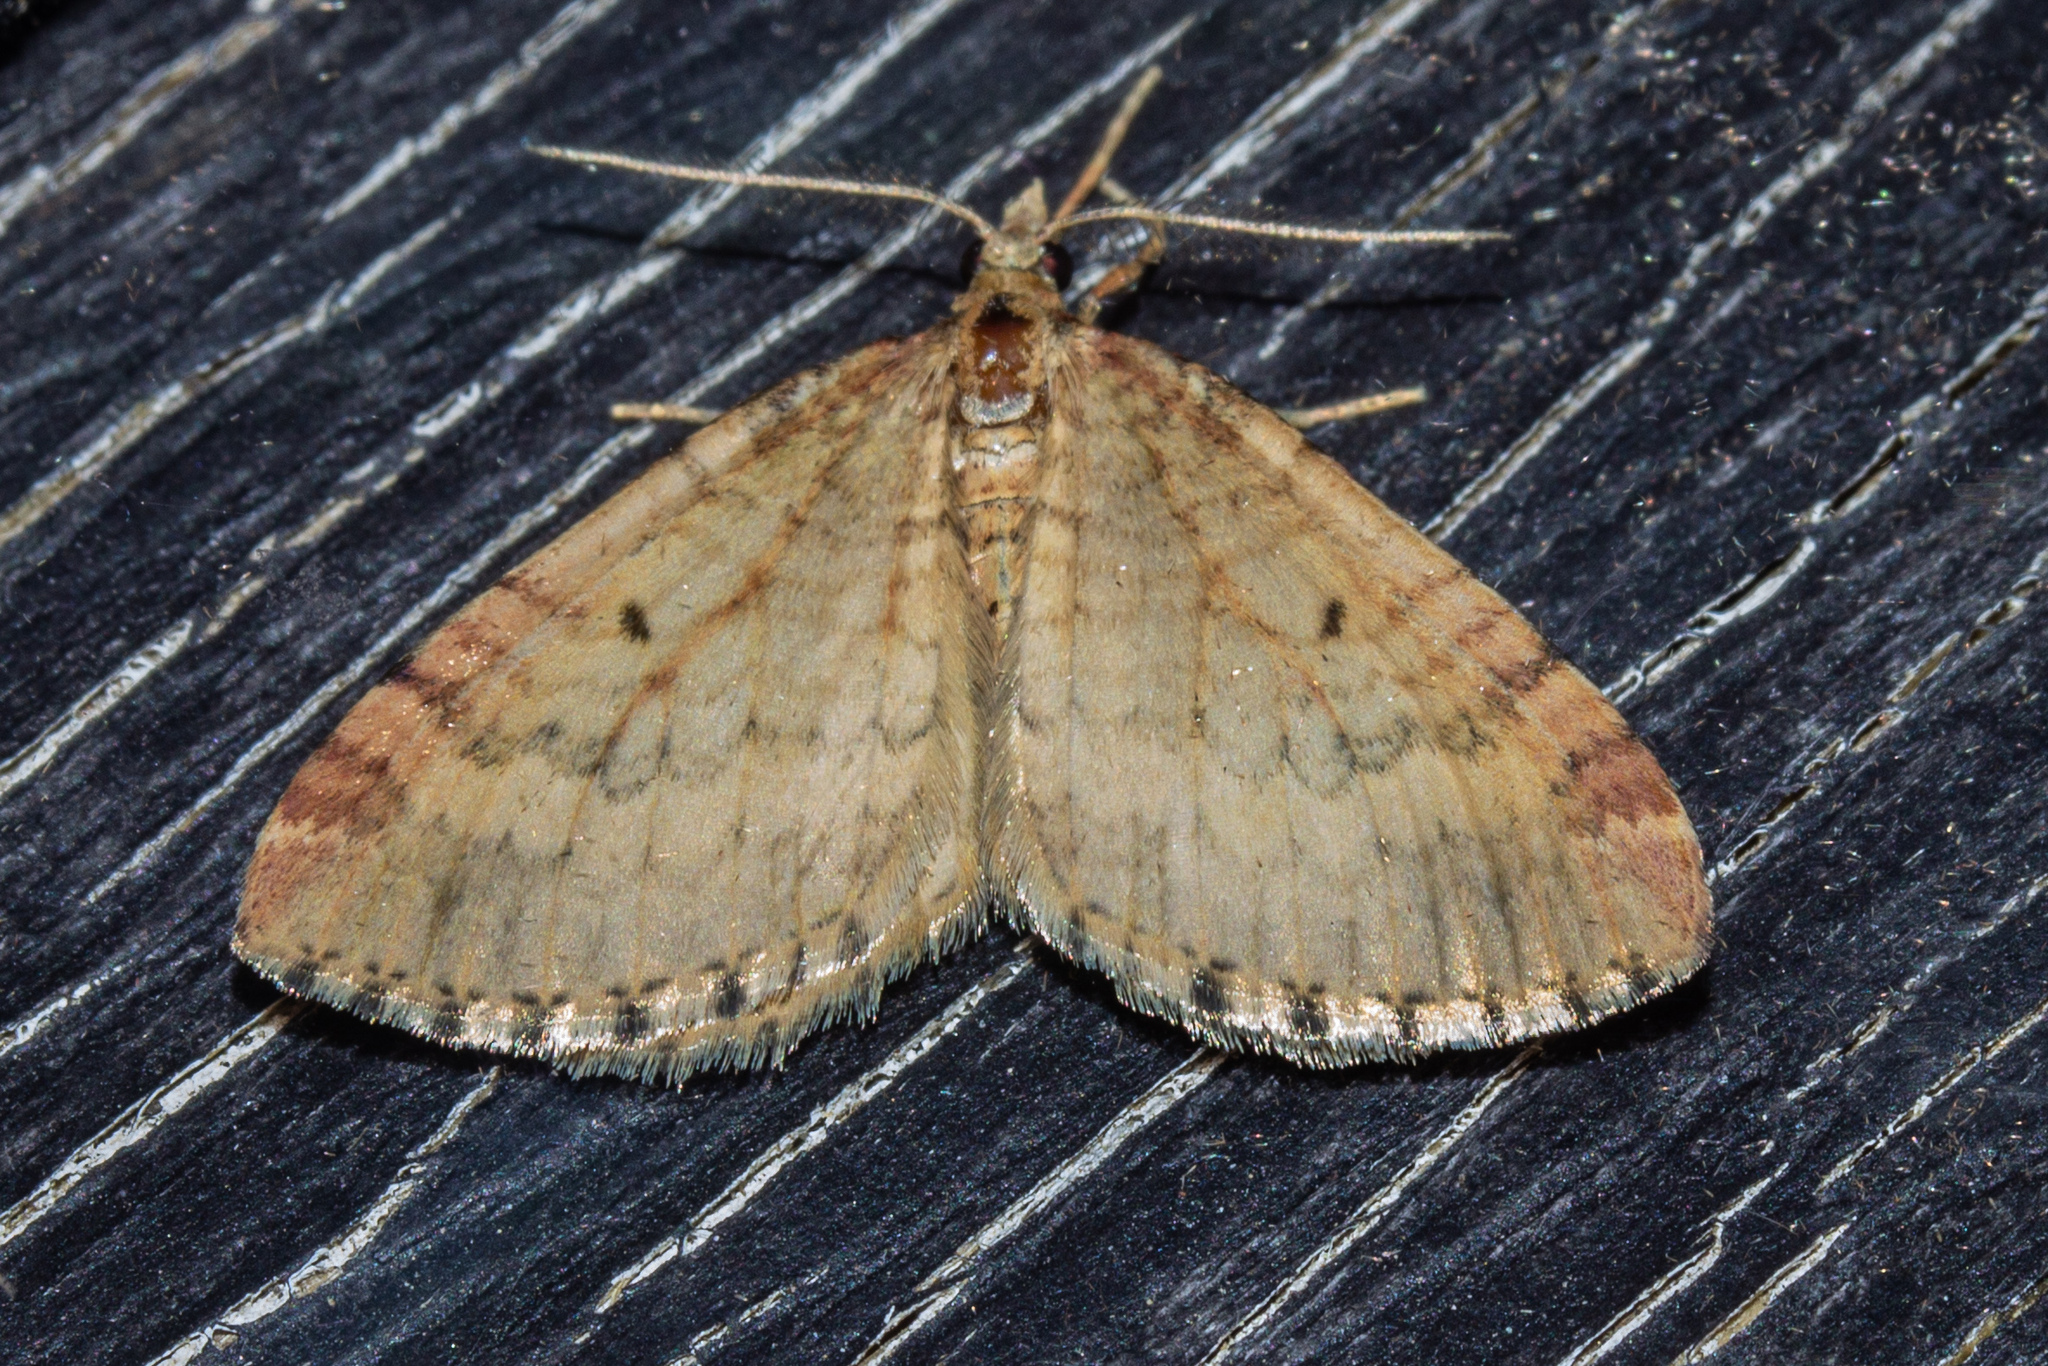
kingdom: Animalia
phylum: Arthropoda
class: Insecta
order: Lepidoptera
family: Geometridae
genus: Asaphodes
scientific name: Asaphodes aegrota
